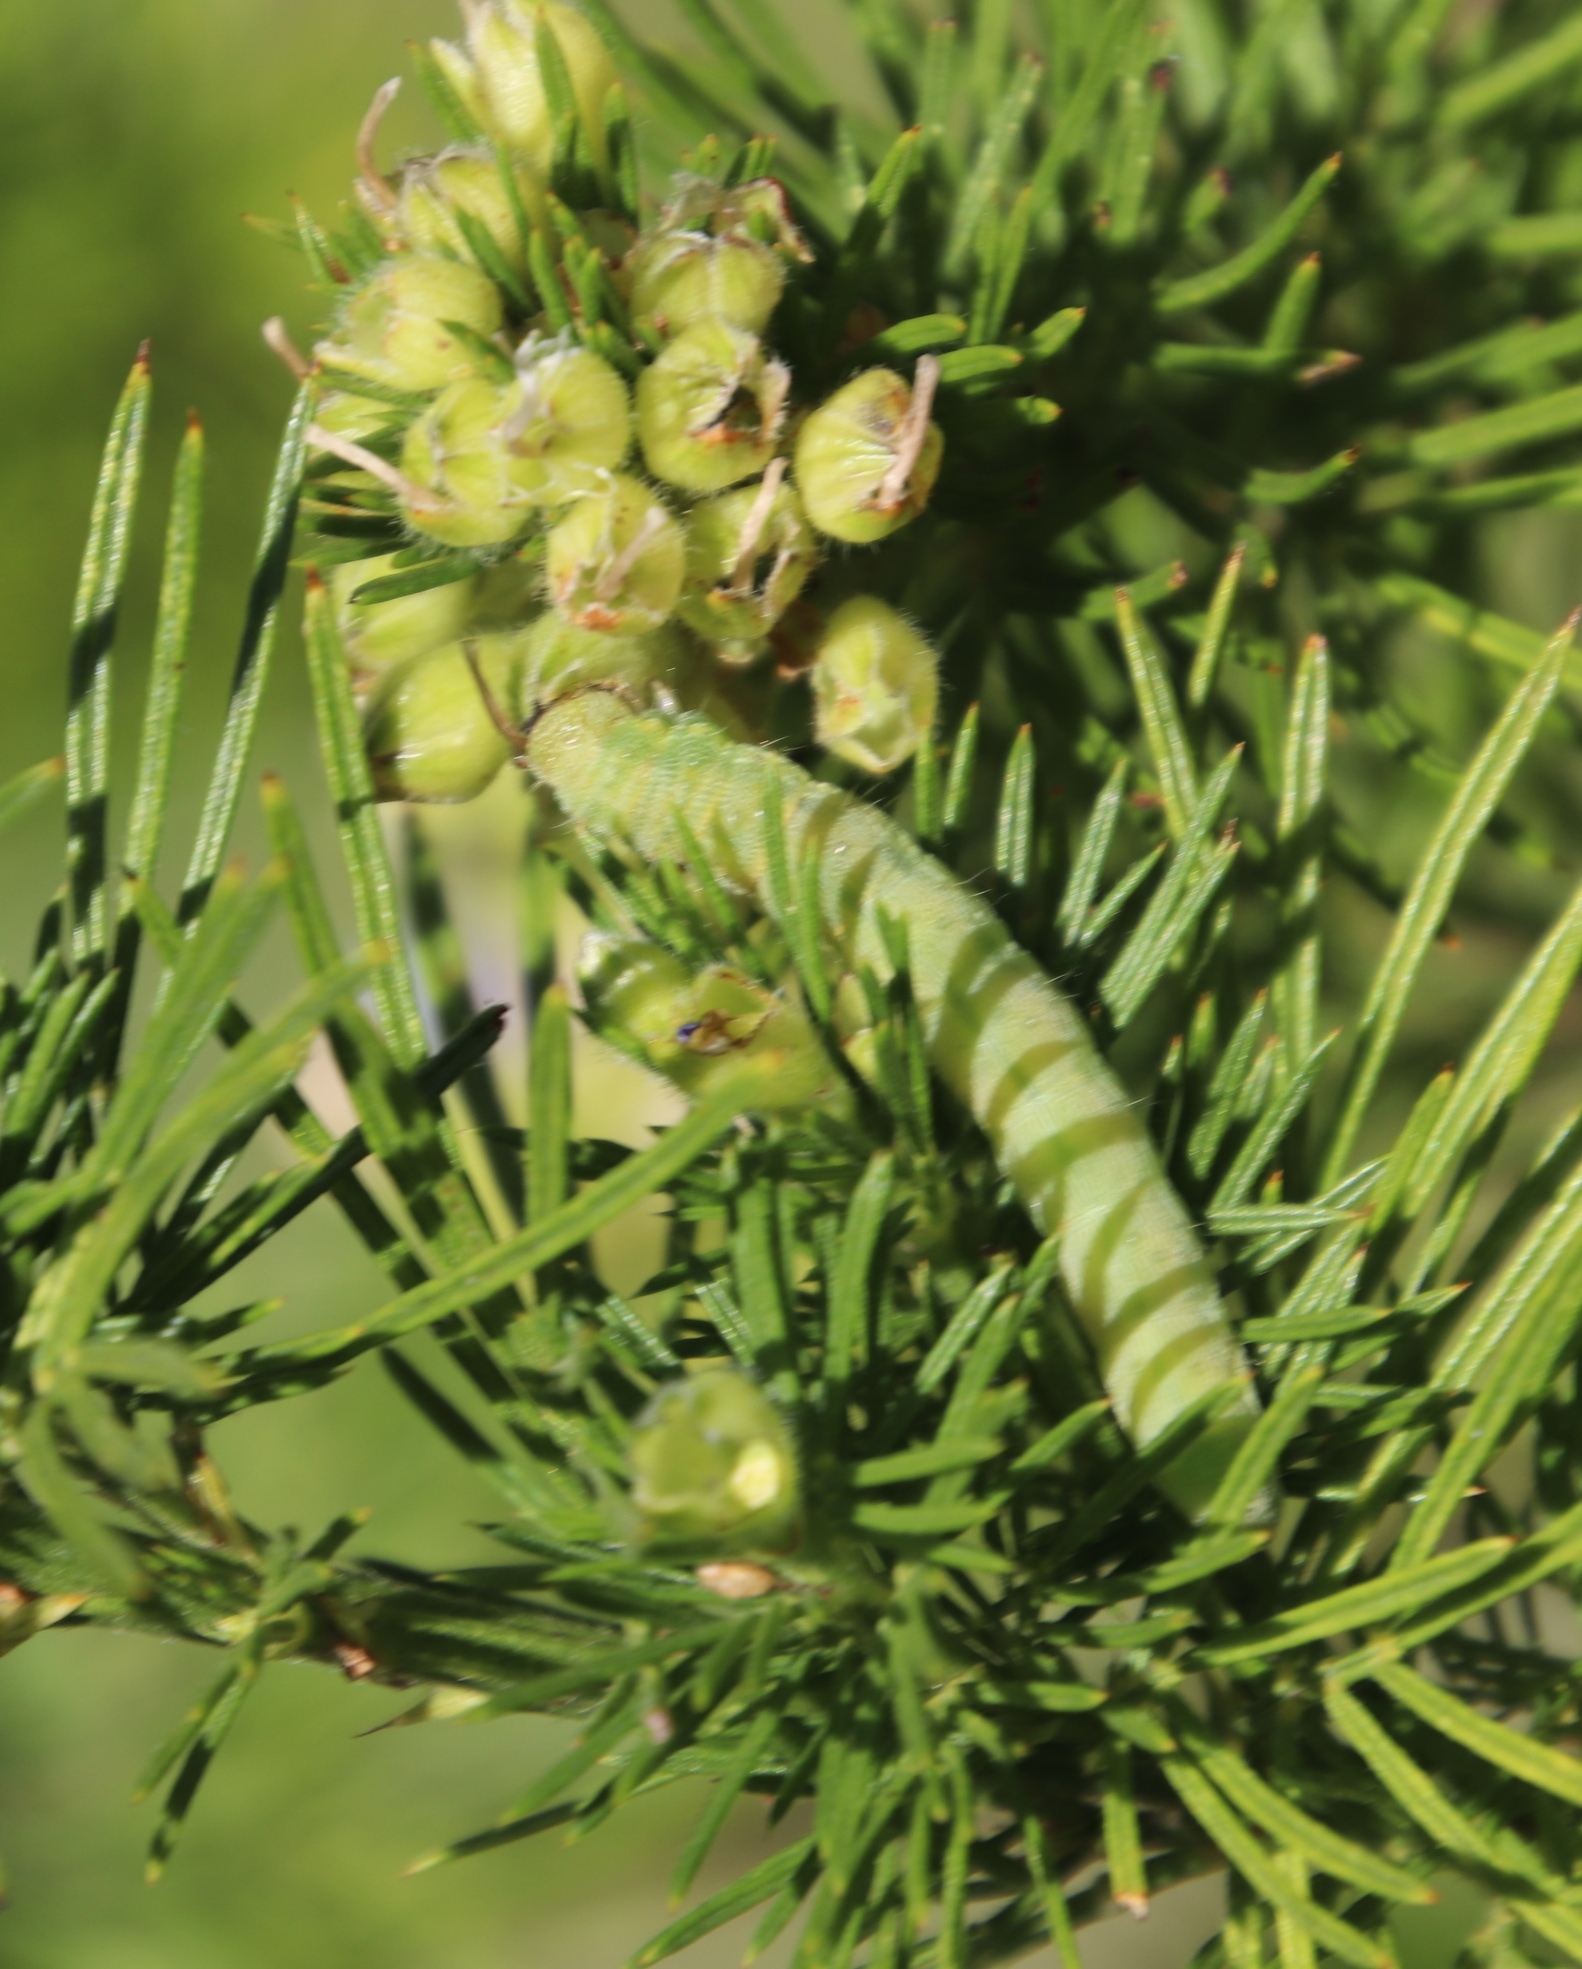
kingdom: Plantae
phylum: Tracheophyta
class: Magnoliopsida
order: Fabales
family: Fabaceae
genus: Psoralea
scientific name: Psoralea pinnata
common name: African scurfpea
